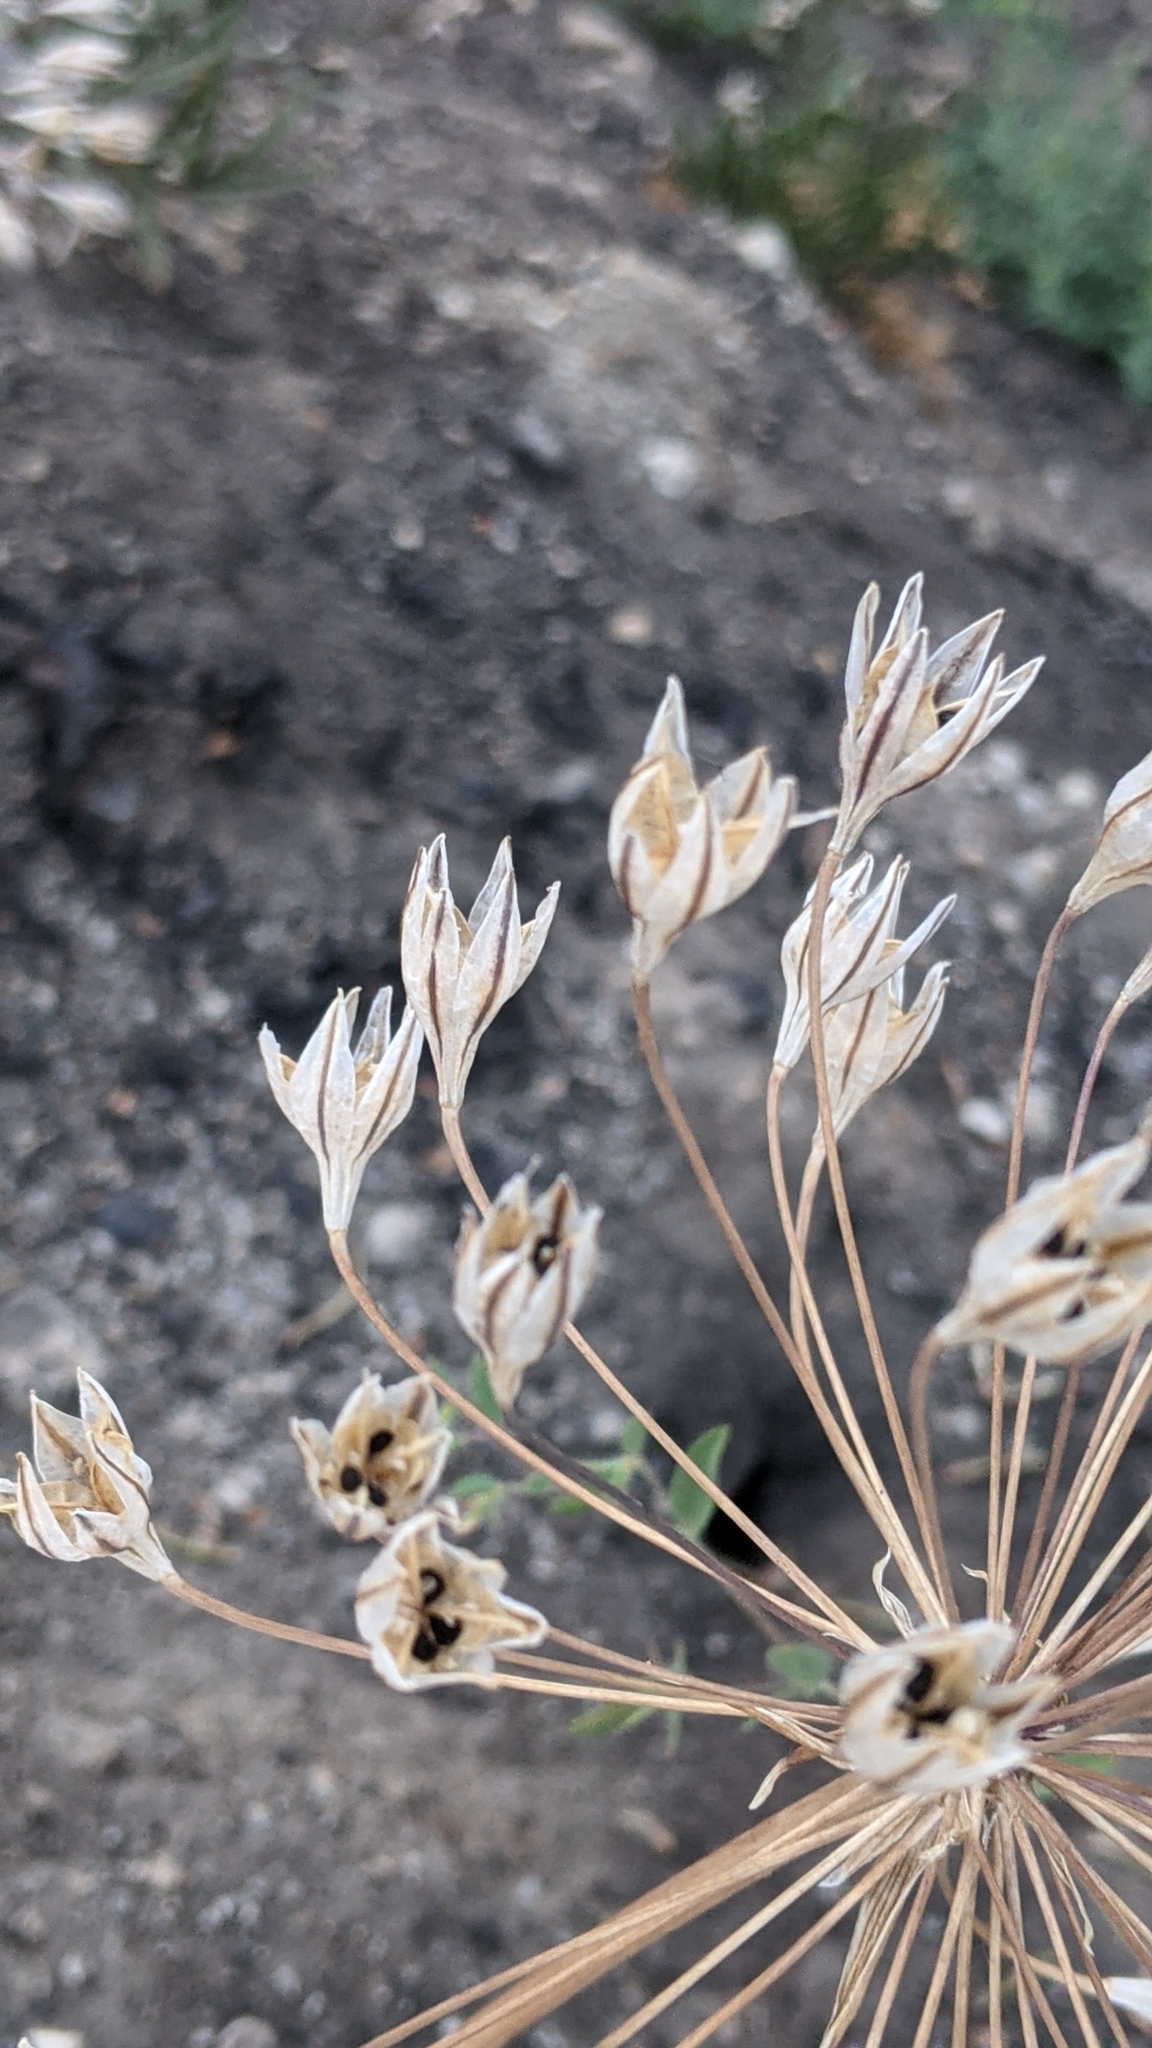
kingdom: Plantae
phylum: Tracheophyta
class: Liliopsida
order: Asparagales
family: Asparagaceae
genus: Triteleia
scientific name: Triteleia laxa
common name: Triplet-lily
